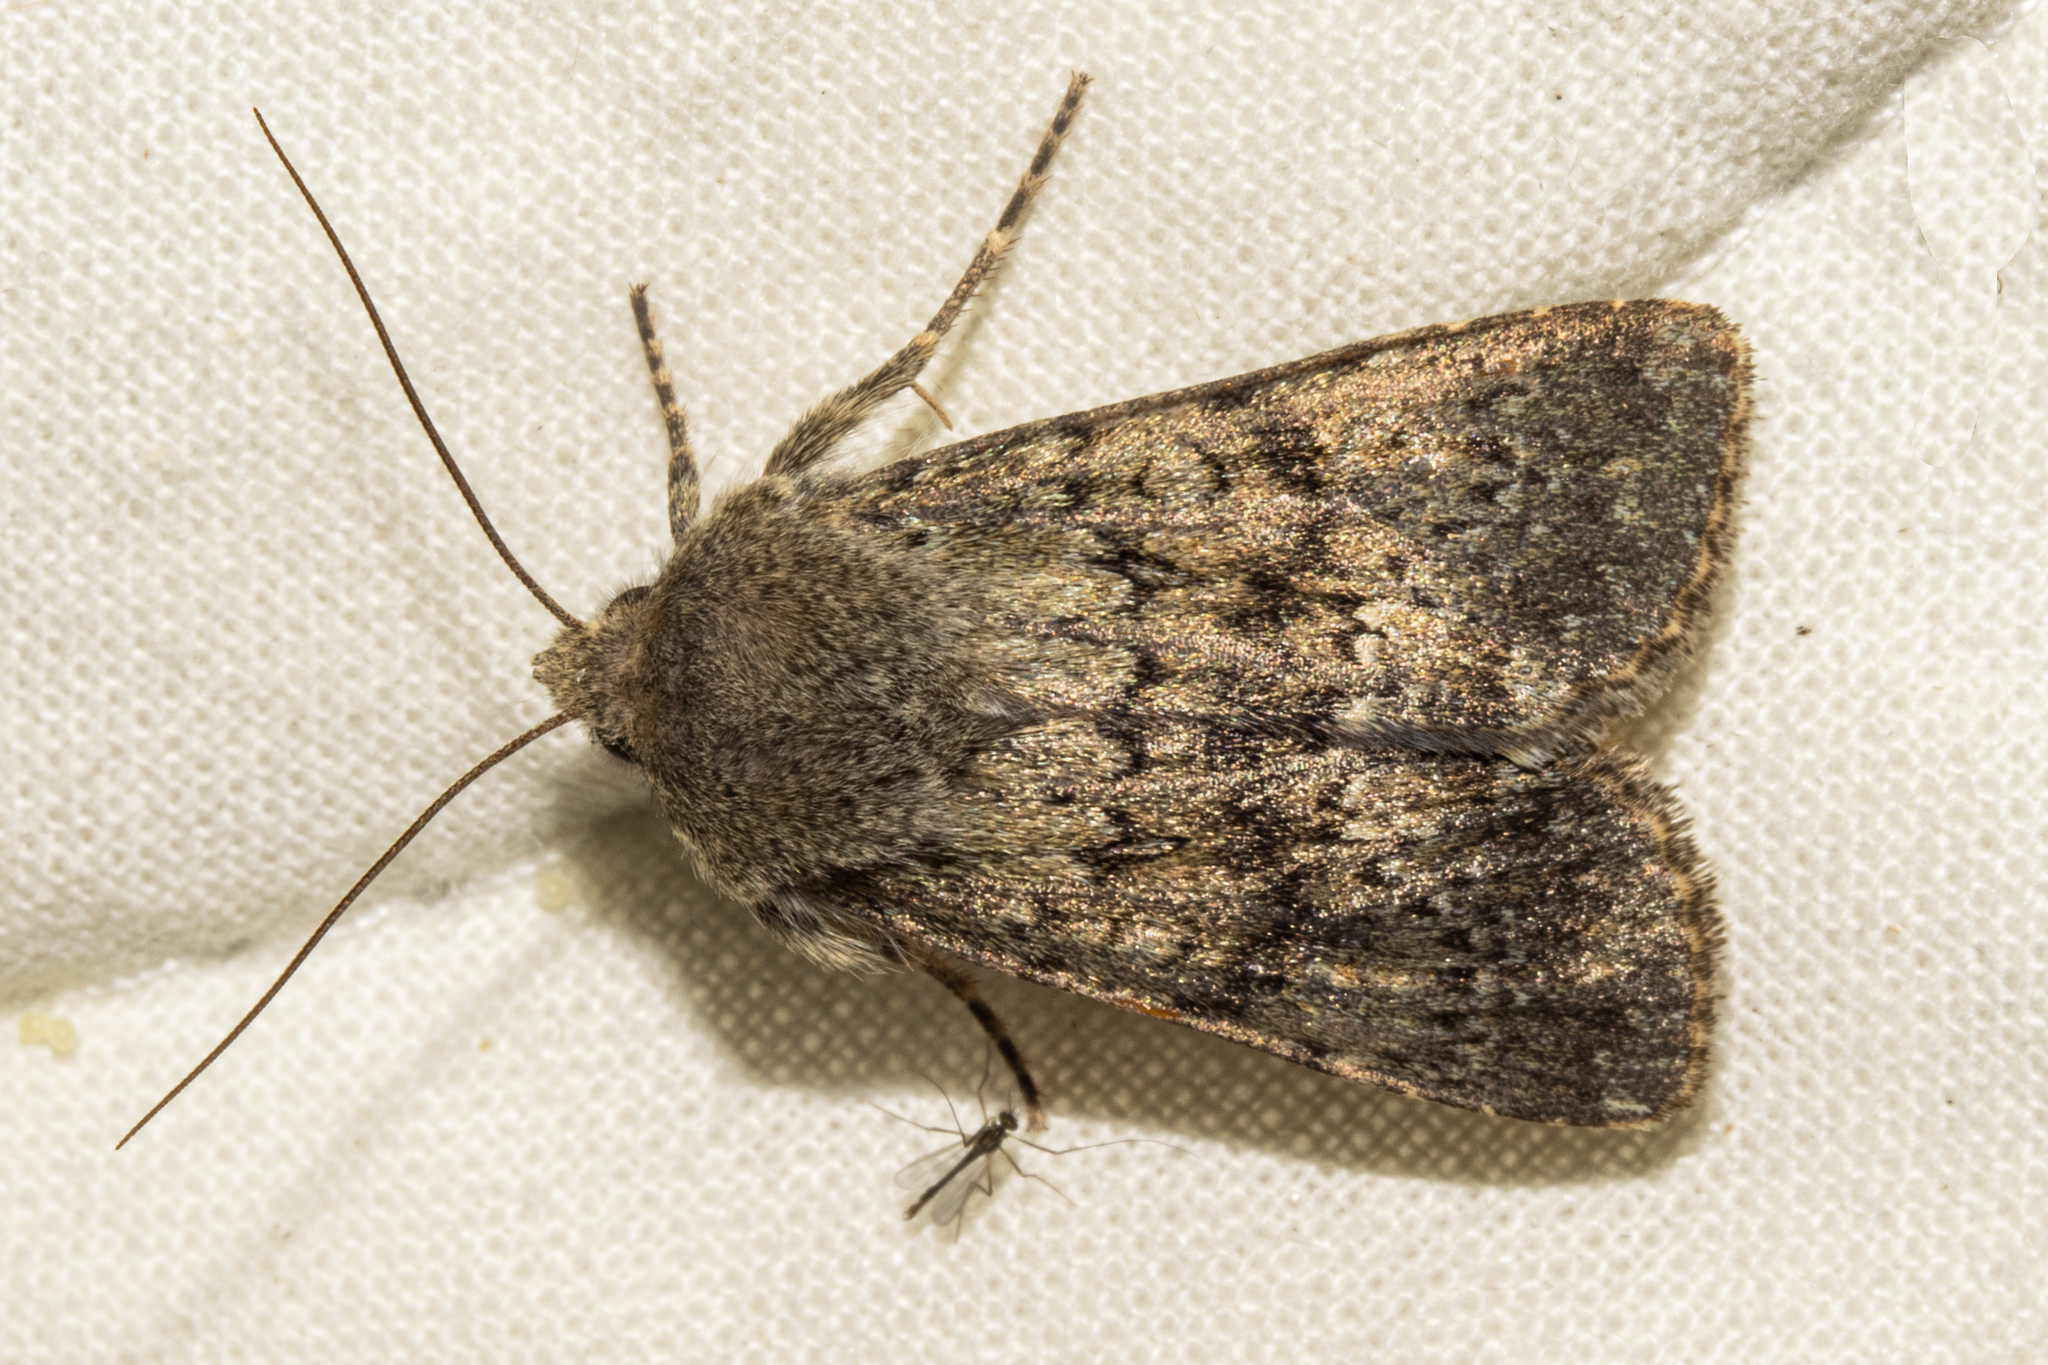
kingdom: Animalia
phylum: Arthropoda
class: Insecta
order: Lepidoptera
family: Noctuidae
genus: Ichneutica
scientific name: Ichneutica moderata
